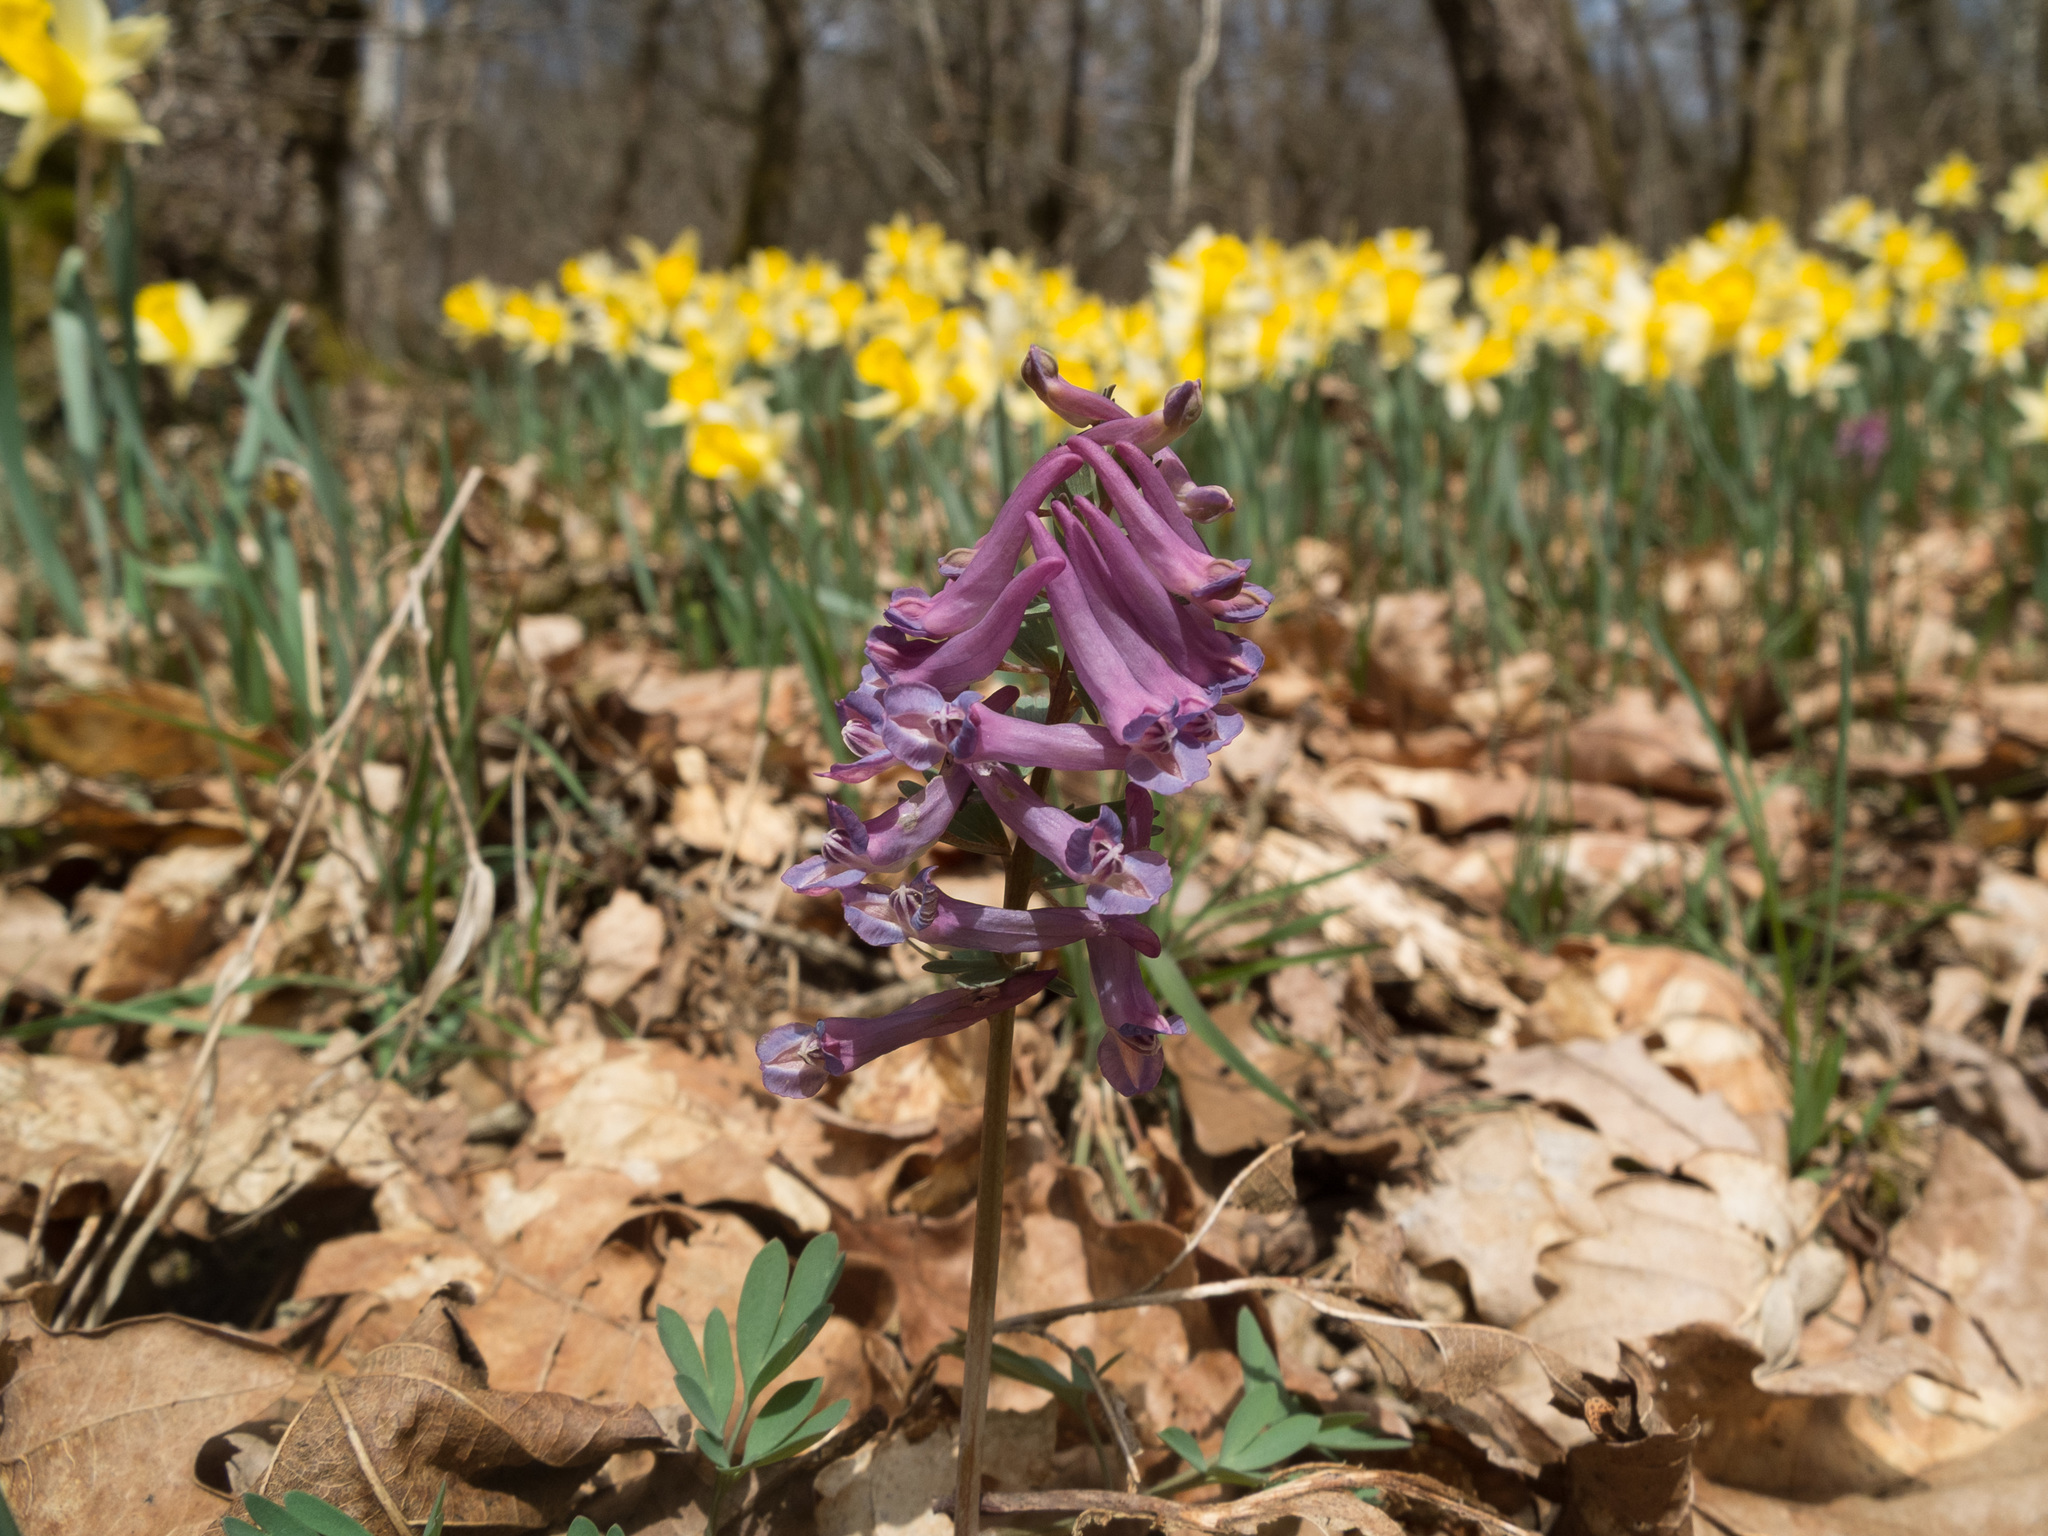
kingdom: Plantae
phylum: Tracheophyta
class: Magnoliopsida
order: Ranunculales
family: Papaveraceae
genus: Corydalis
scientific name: Corydalis solida
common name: Bird-in-a-bush
